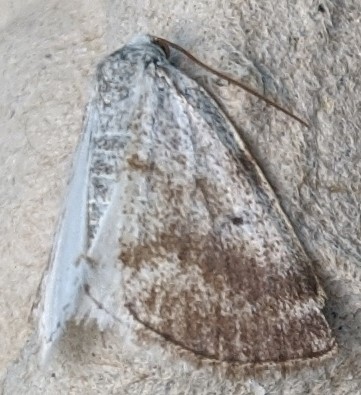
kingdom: Animalia
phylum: Arthropoda
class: Insecta
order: Lepidoptera
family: Geometridae
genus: Lomographa
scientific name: Lomographa semiclarata
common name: Bluish spring moth
